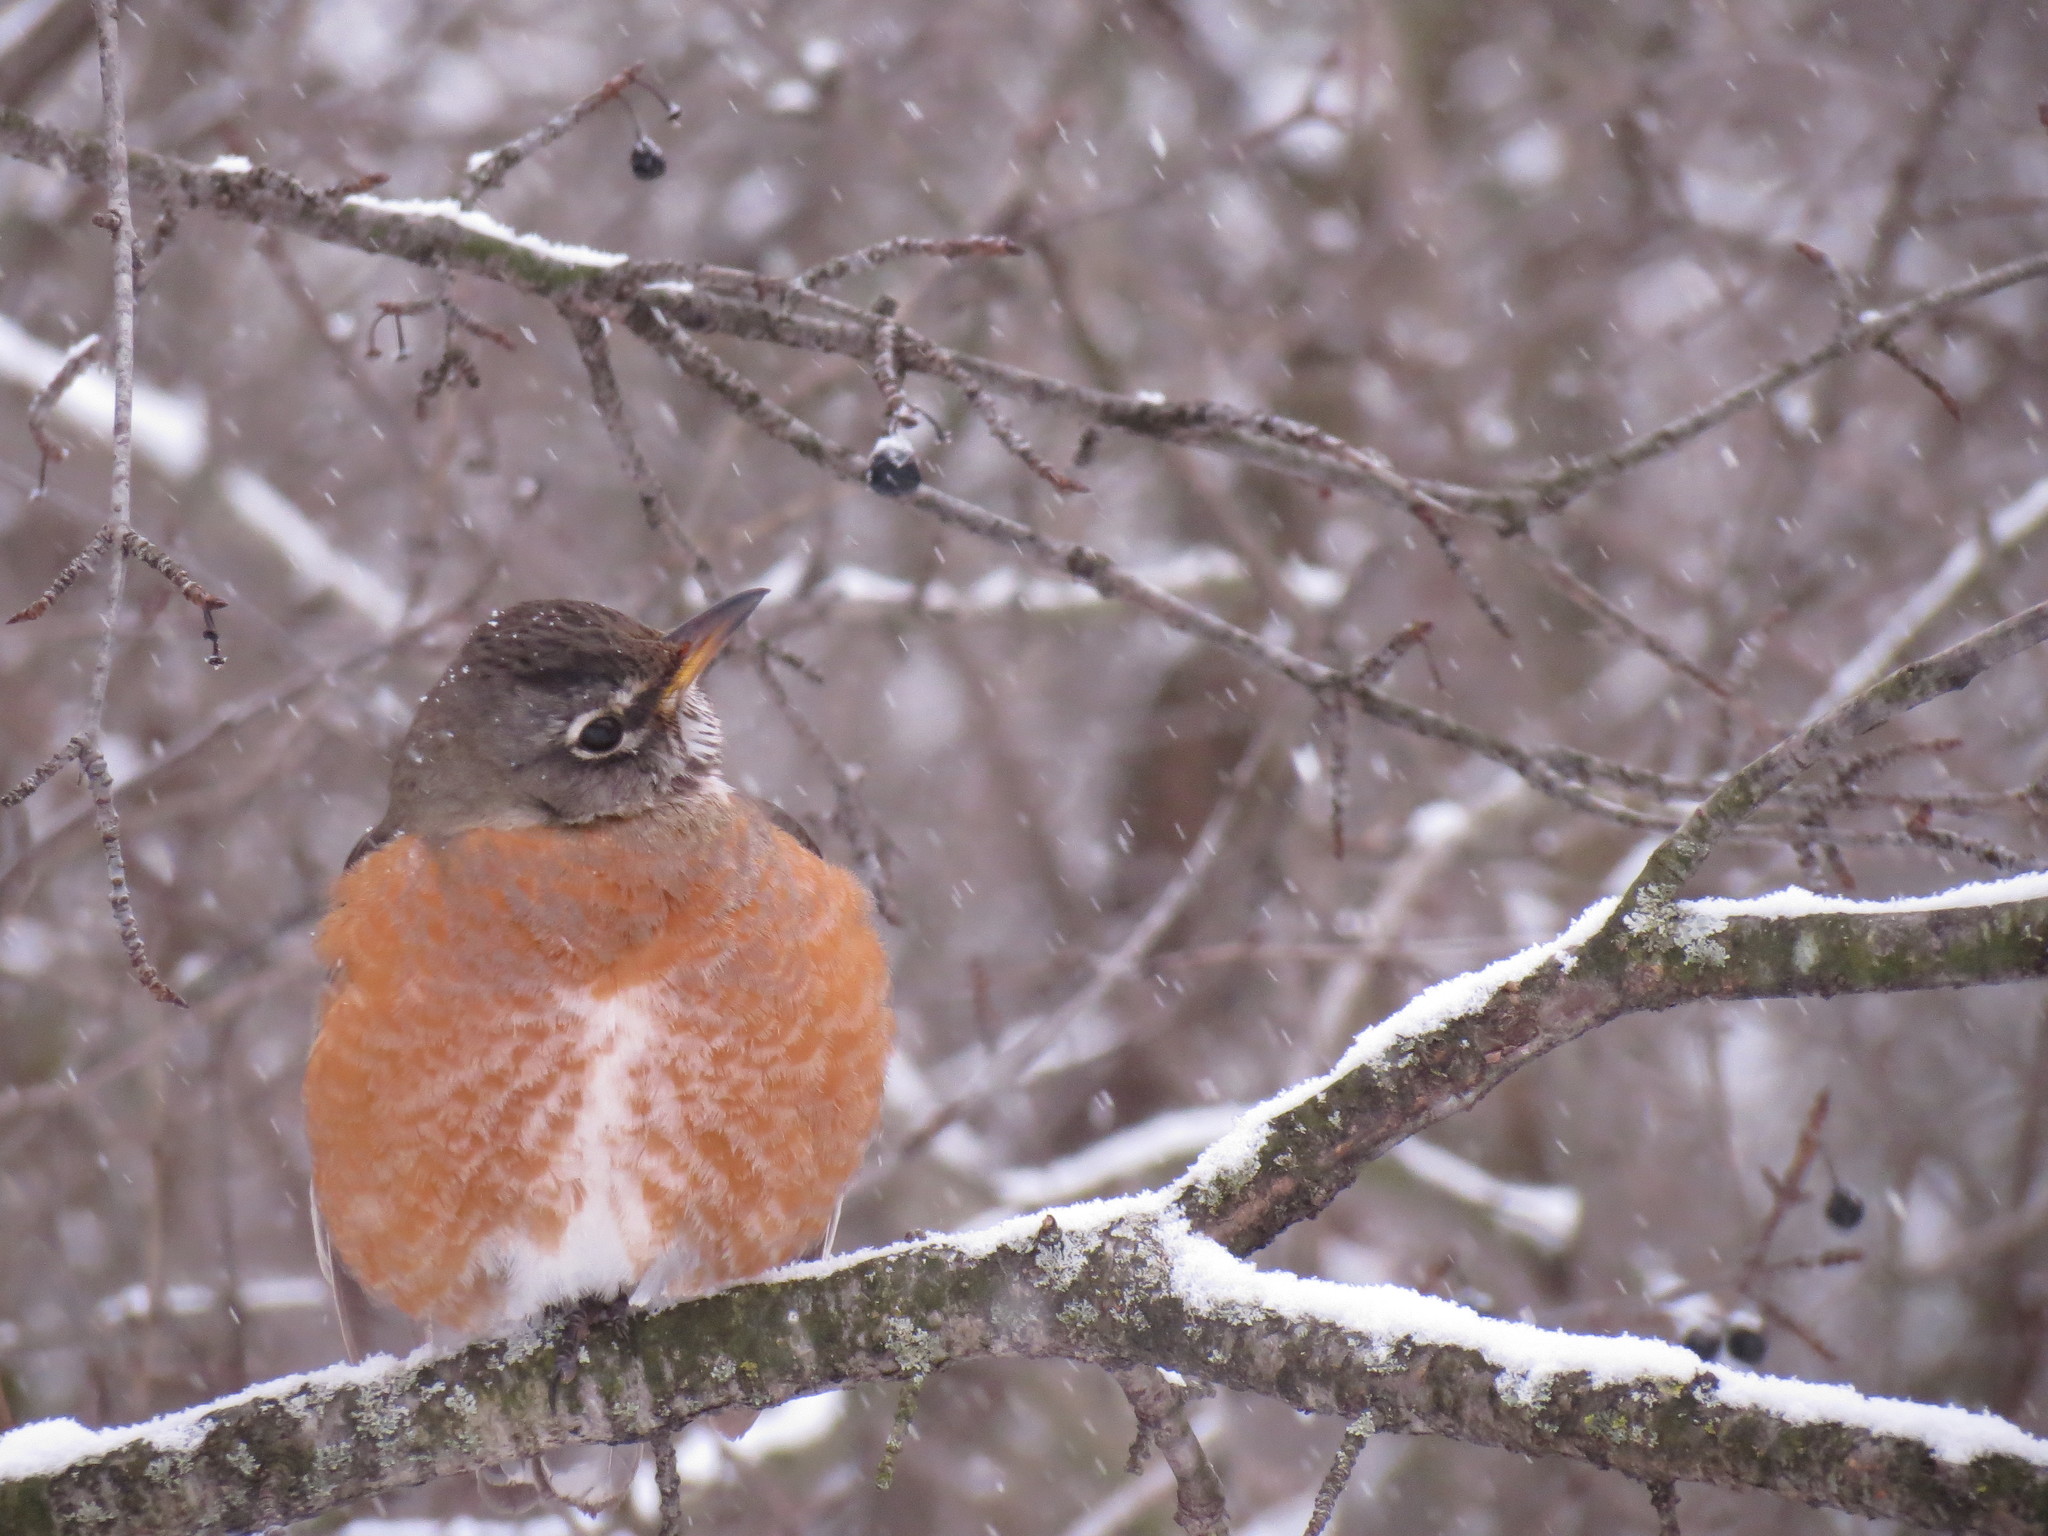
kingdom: Animalia
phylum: Chordata
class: Aves
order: Passeriformes
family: Turdidae
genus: Turdus
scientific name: Turdus migratorius
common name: American robin
